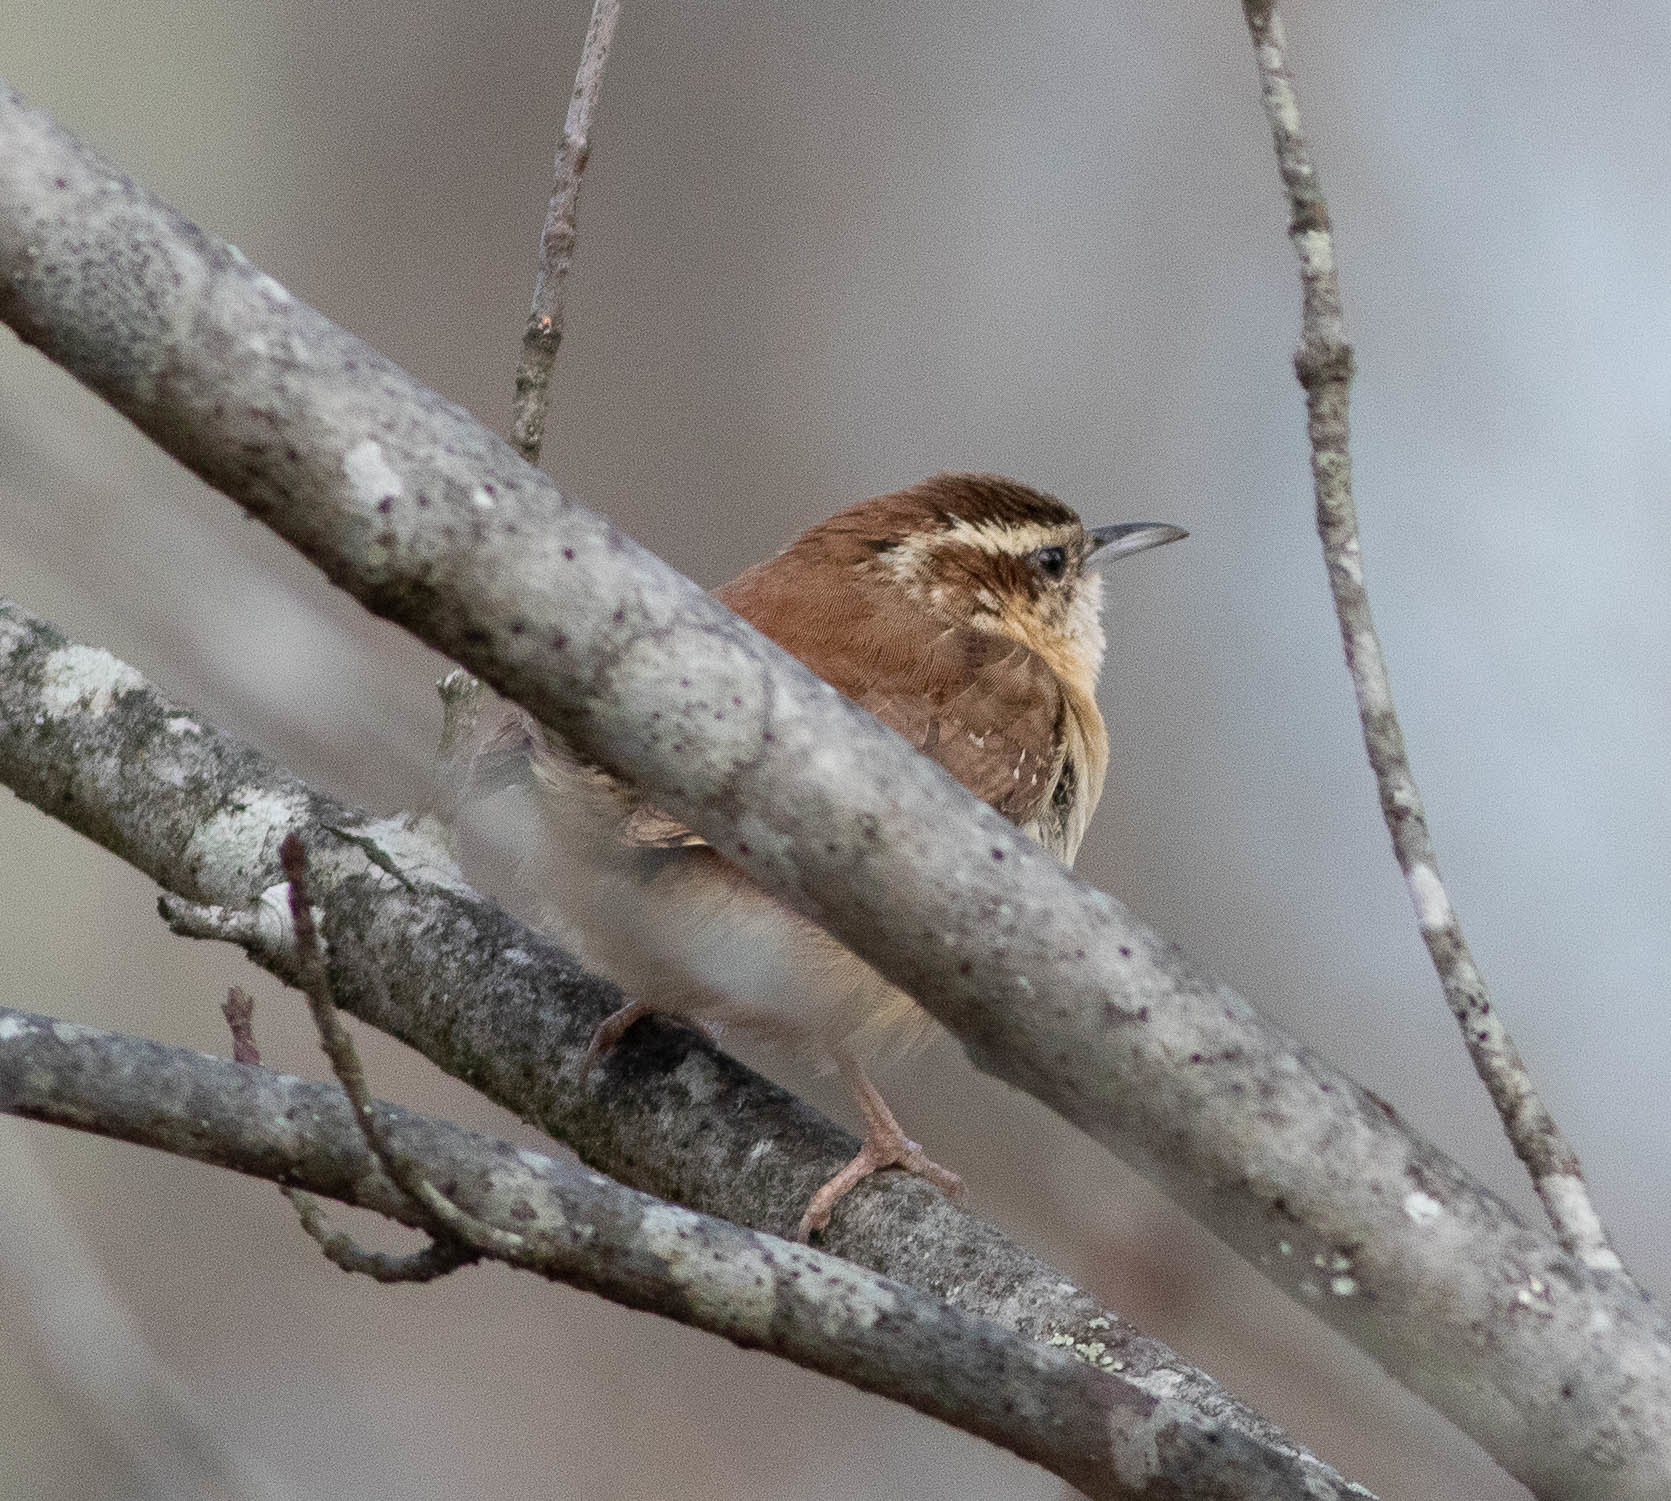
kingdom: Animalia
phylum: Chordata
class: Aves
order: Passeriformes
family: Troglodytidae
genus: Thryothorus
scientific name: Thryothorus ludovicianus
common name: Carolina wren
